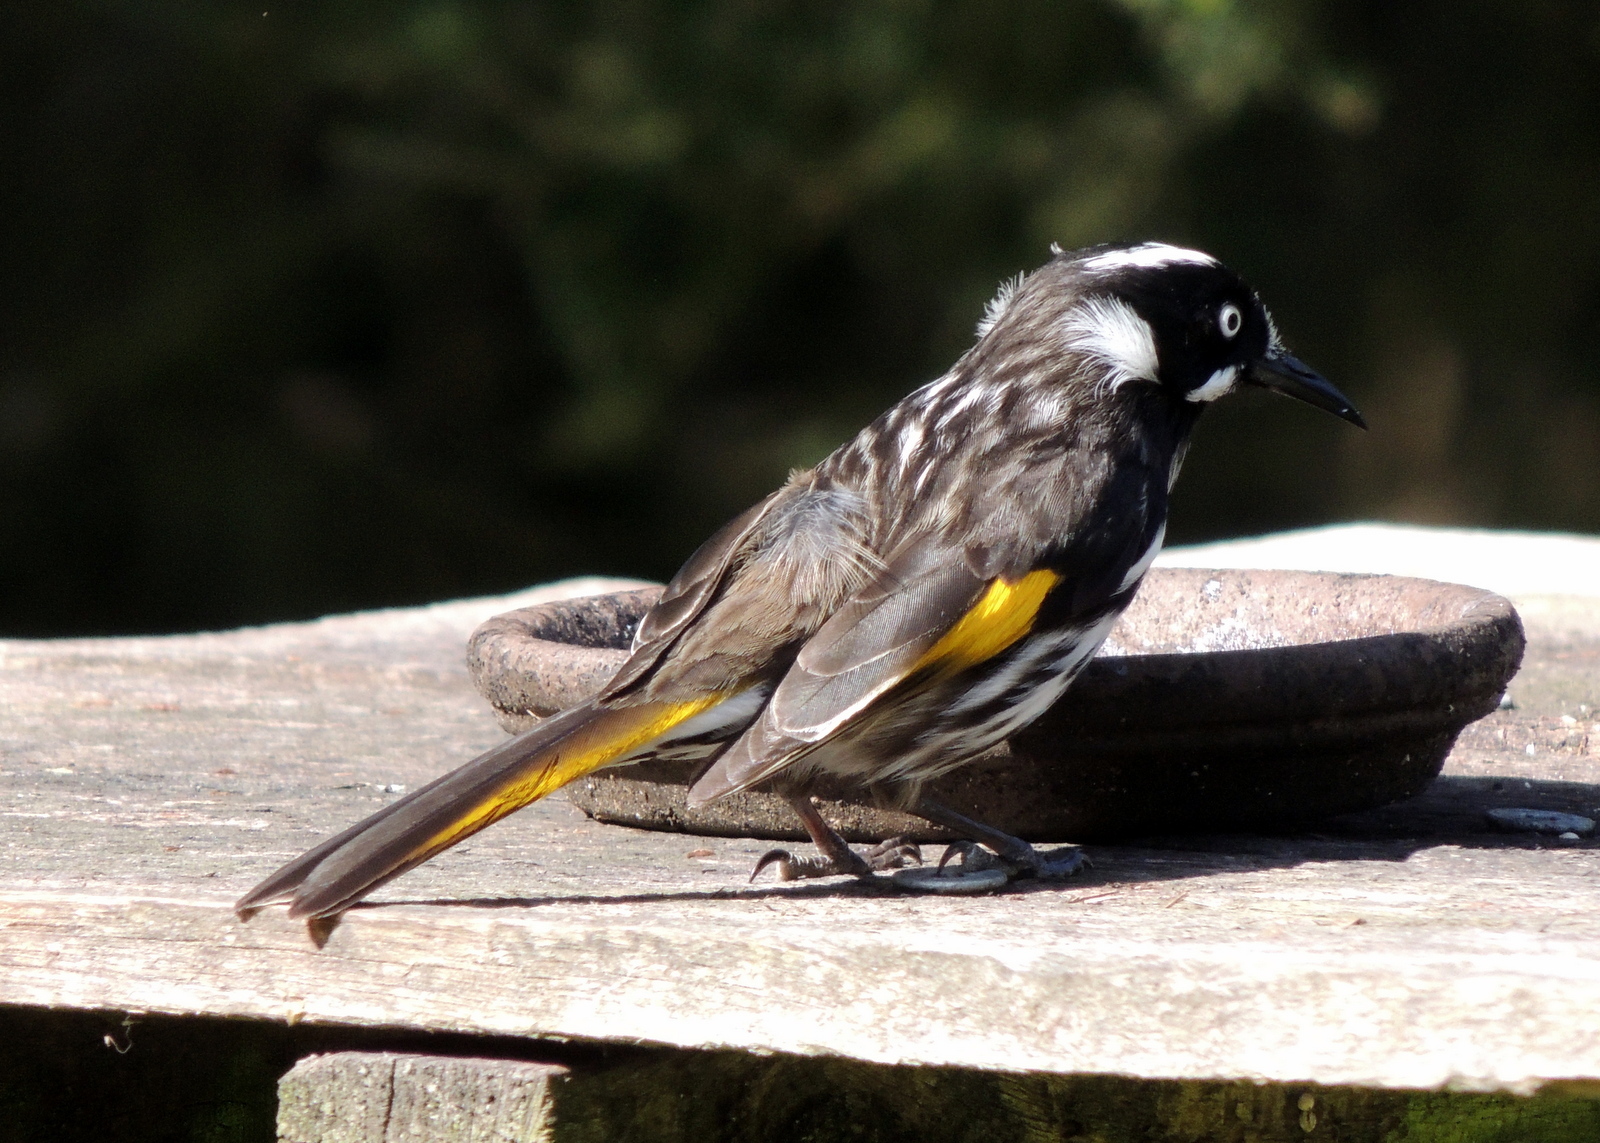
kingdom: Animalia
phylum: Chordata
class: Aves
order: Passeriformes
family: Meliphagidae
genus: Phylidonyris
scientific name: Phylidonyris novaehollandiae
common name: New holland honeyeater
